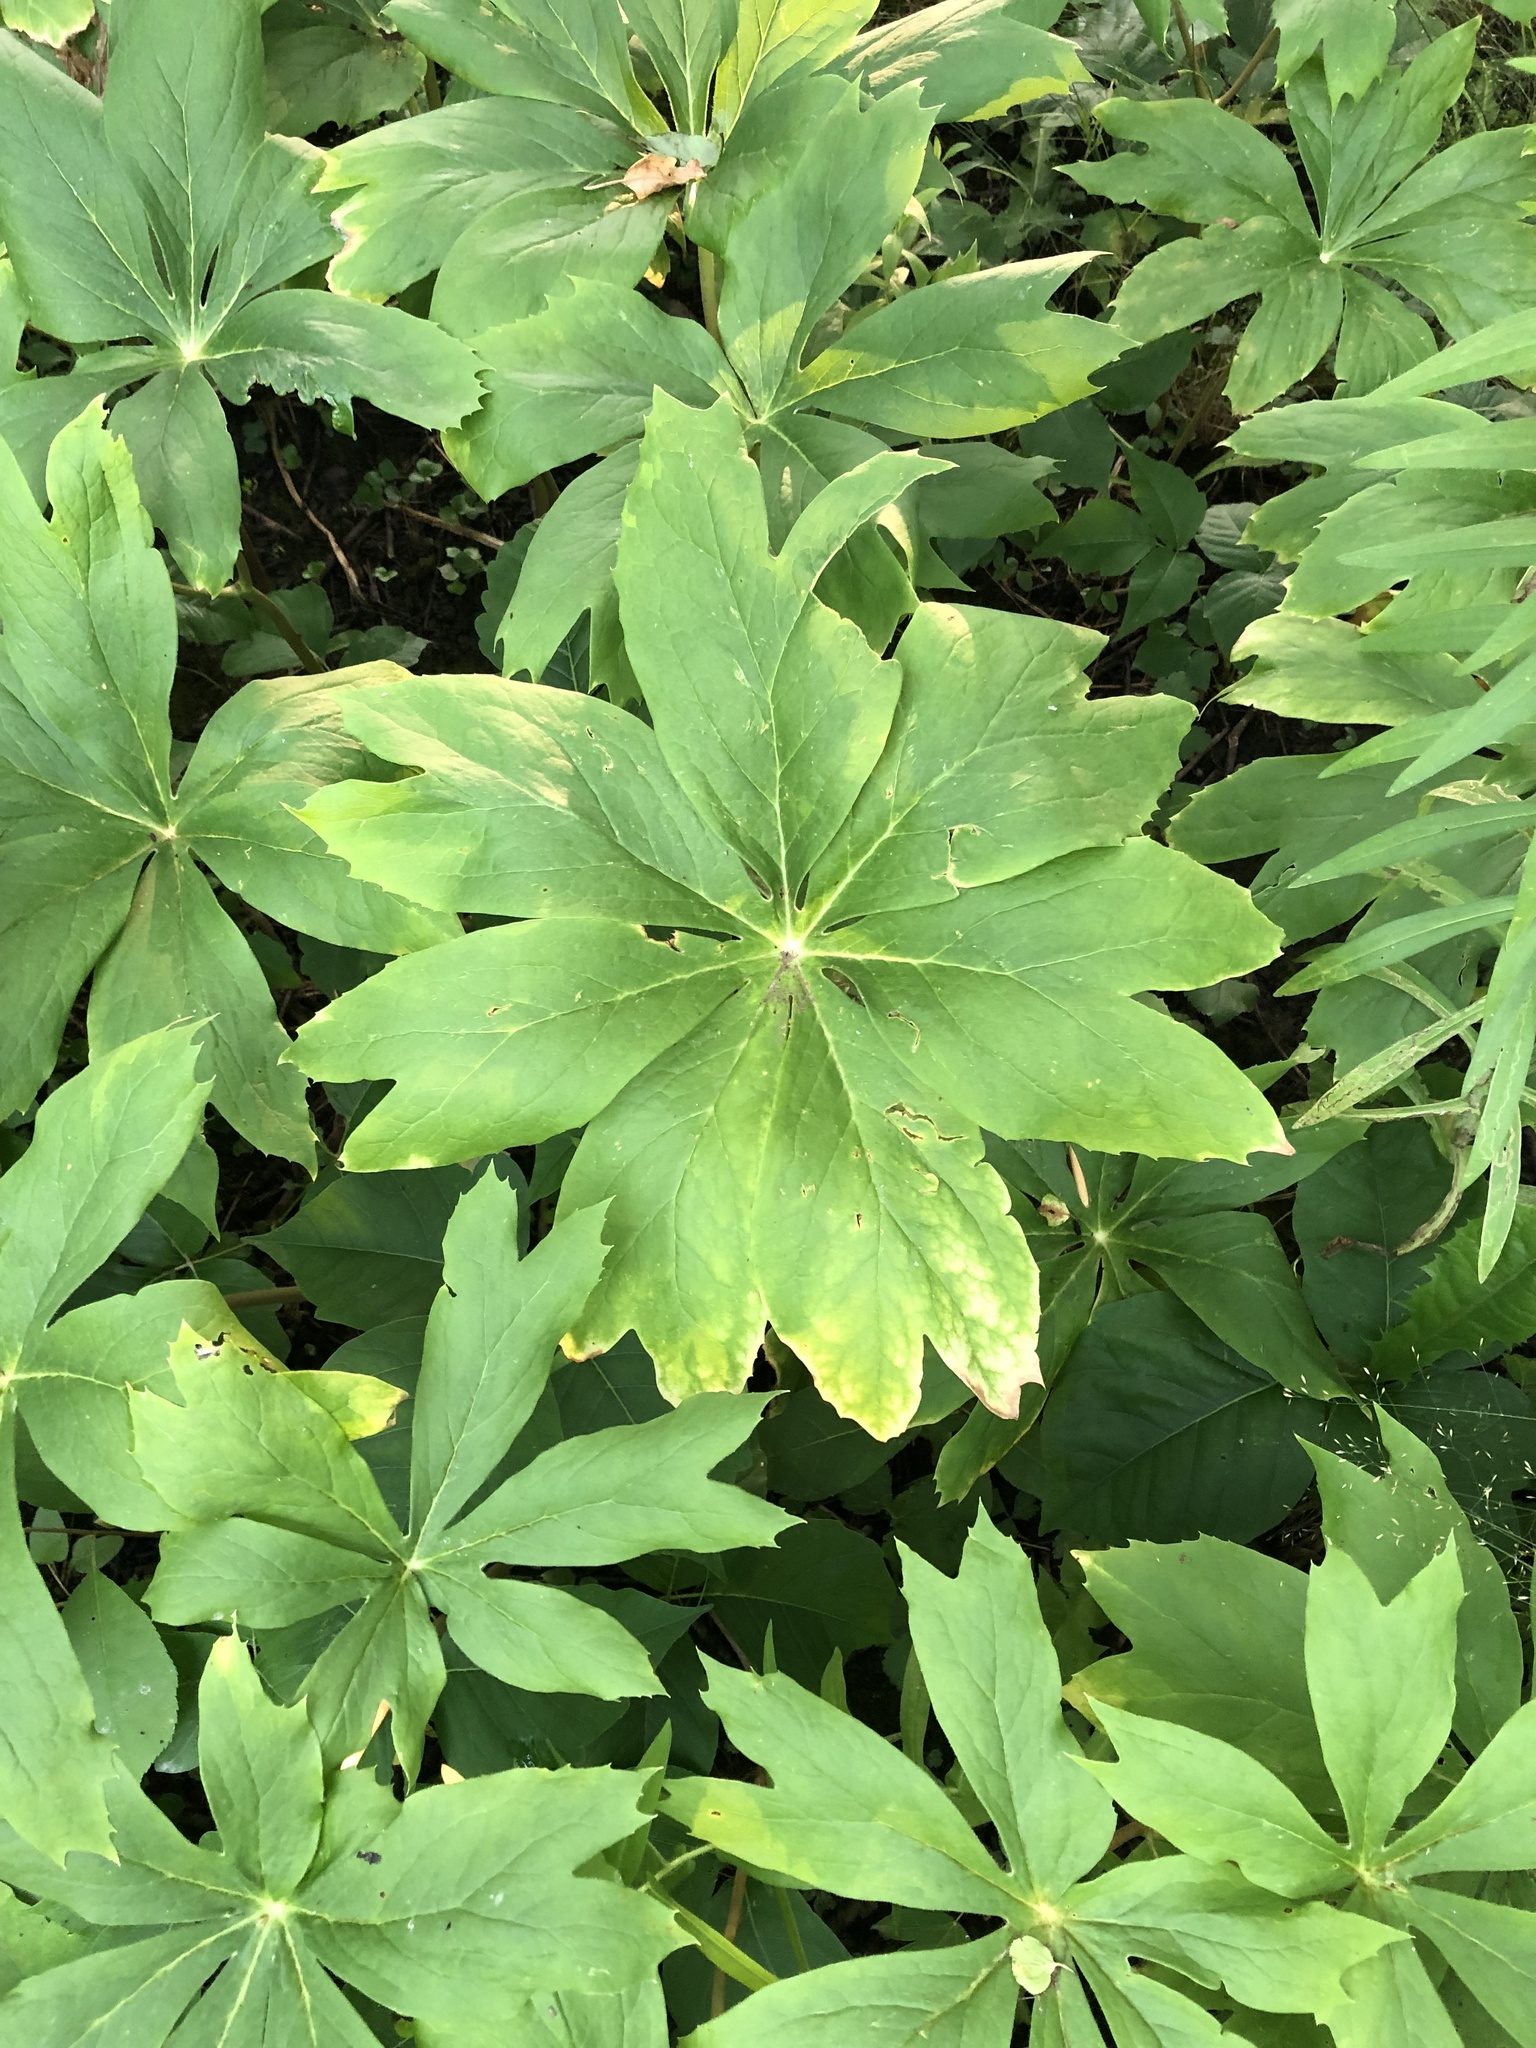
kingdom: Plantae
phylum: Tracheophyta
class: Magnoliopsida
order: Ranunculales
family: Berberidaceae
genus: Podophyllum
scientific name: Podophyllum peltatum
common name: Wild mandrake
